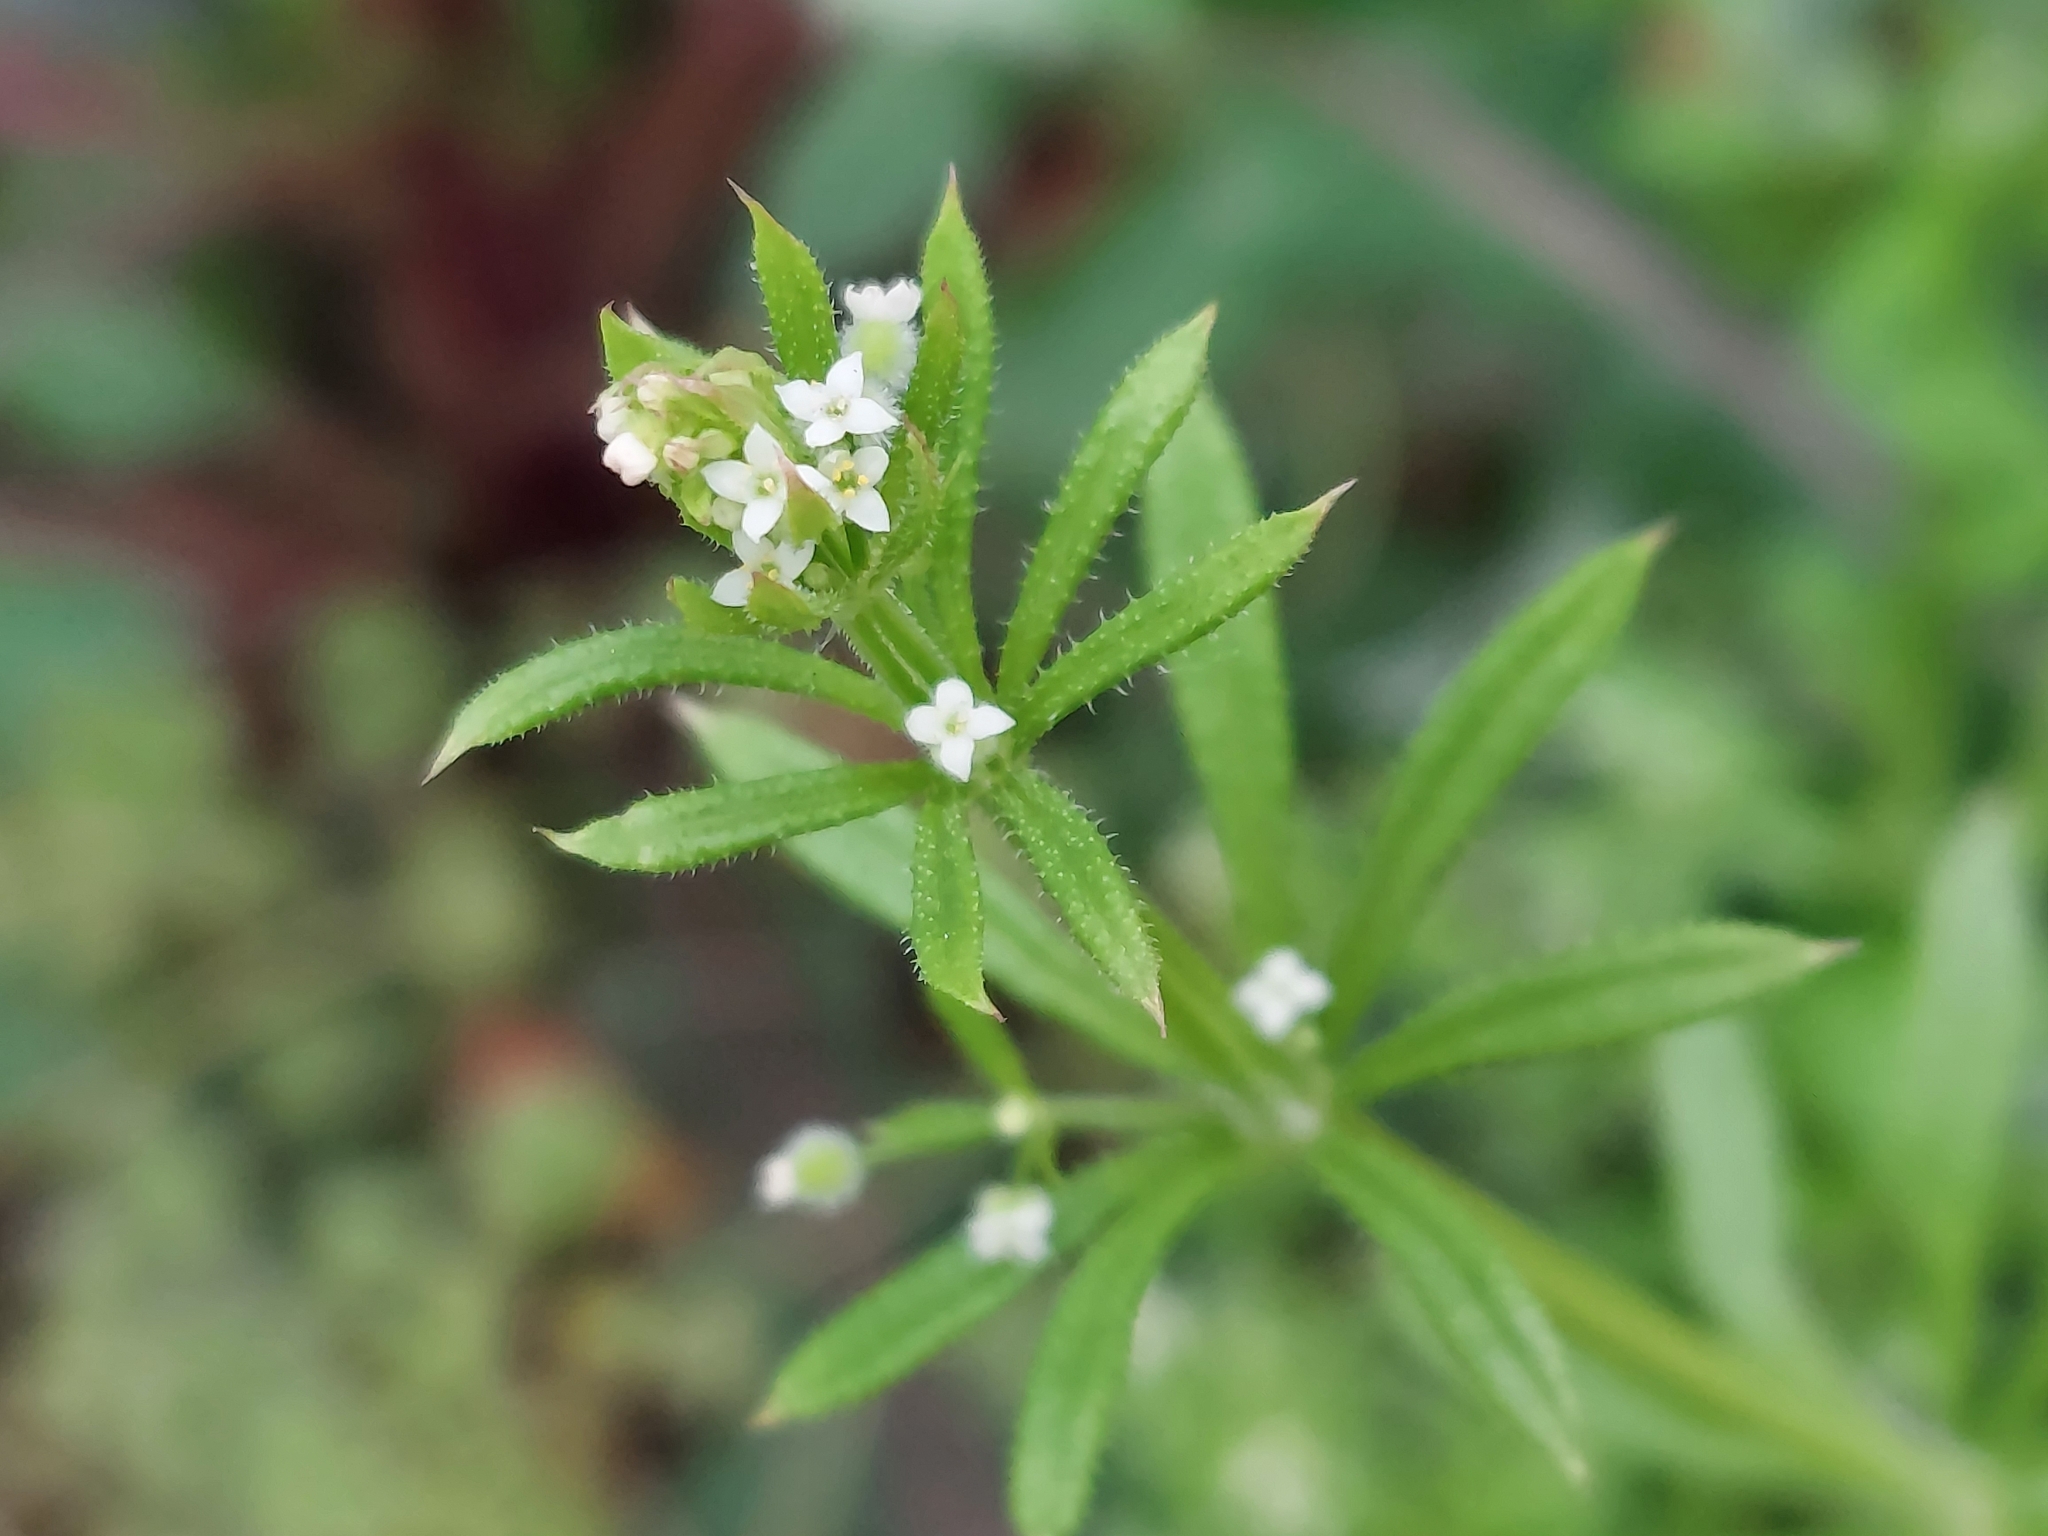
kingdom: Plantae
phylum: Tracheophyta
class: Magnoliopsida
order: Gentianales
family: Rubiaceae
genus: Galium
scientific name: Galium aparine
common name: Cleavers
